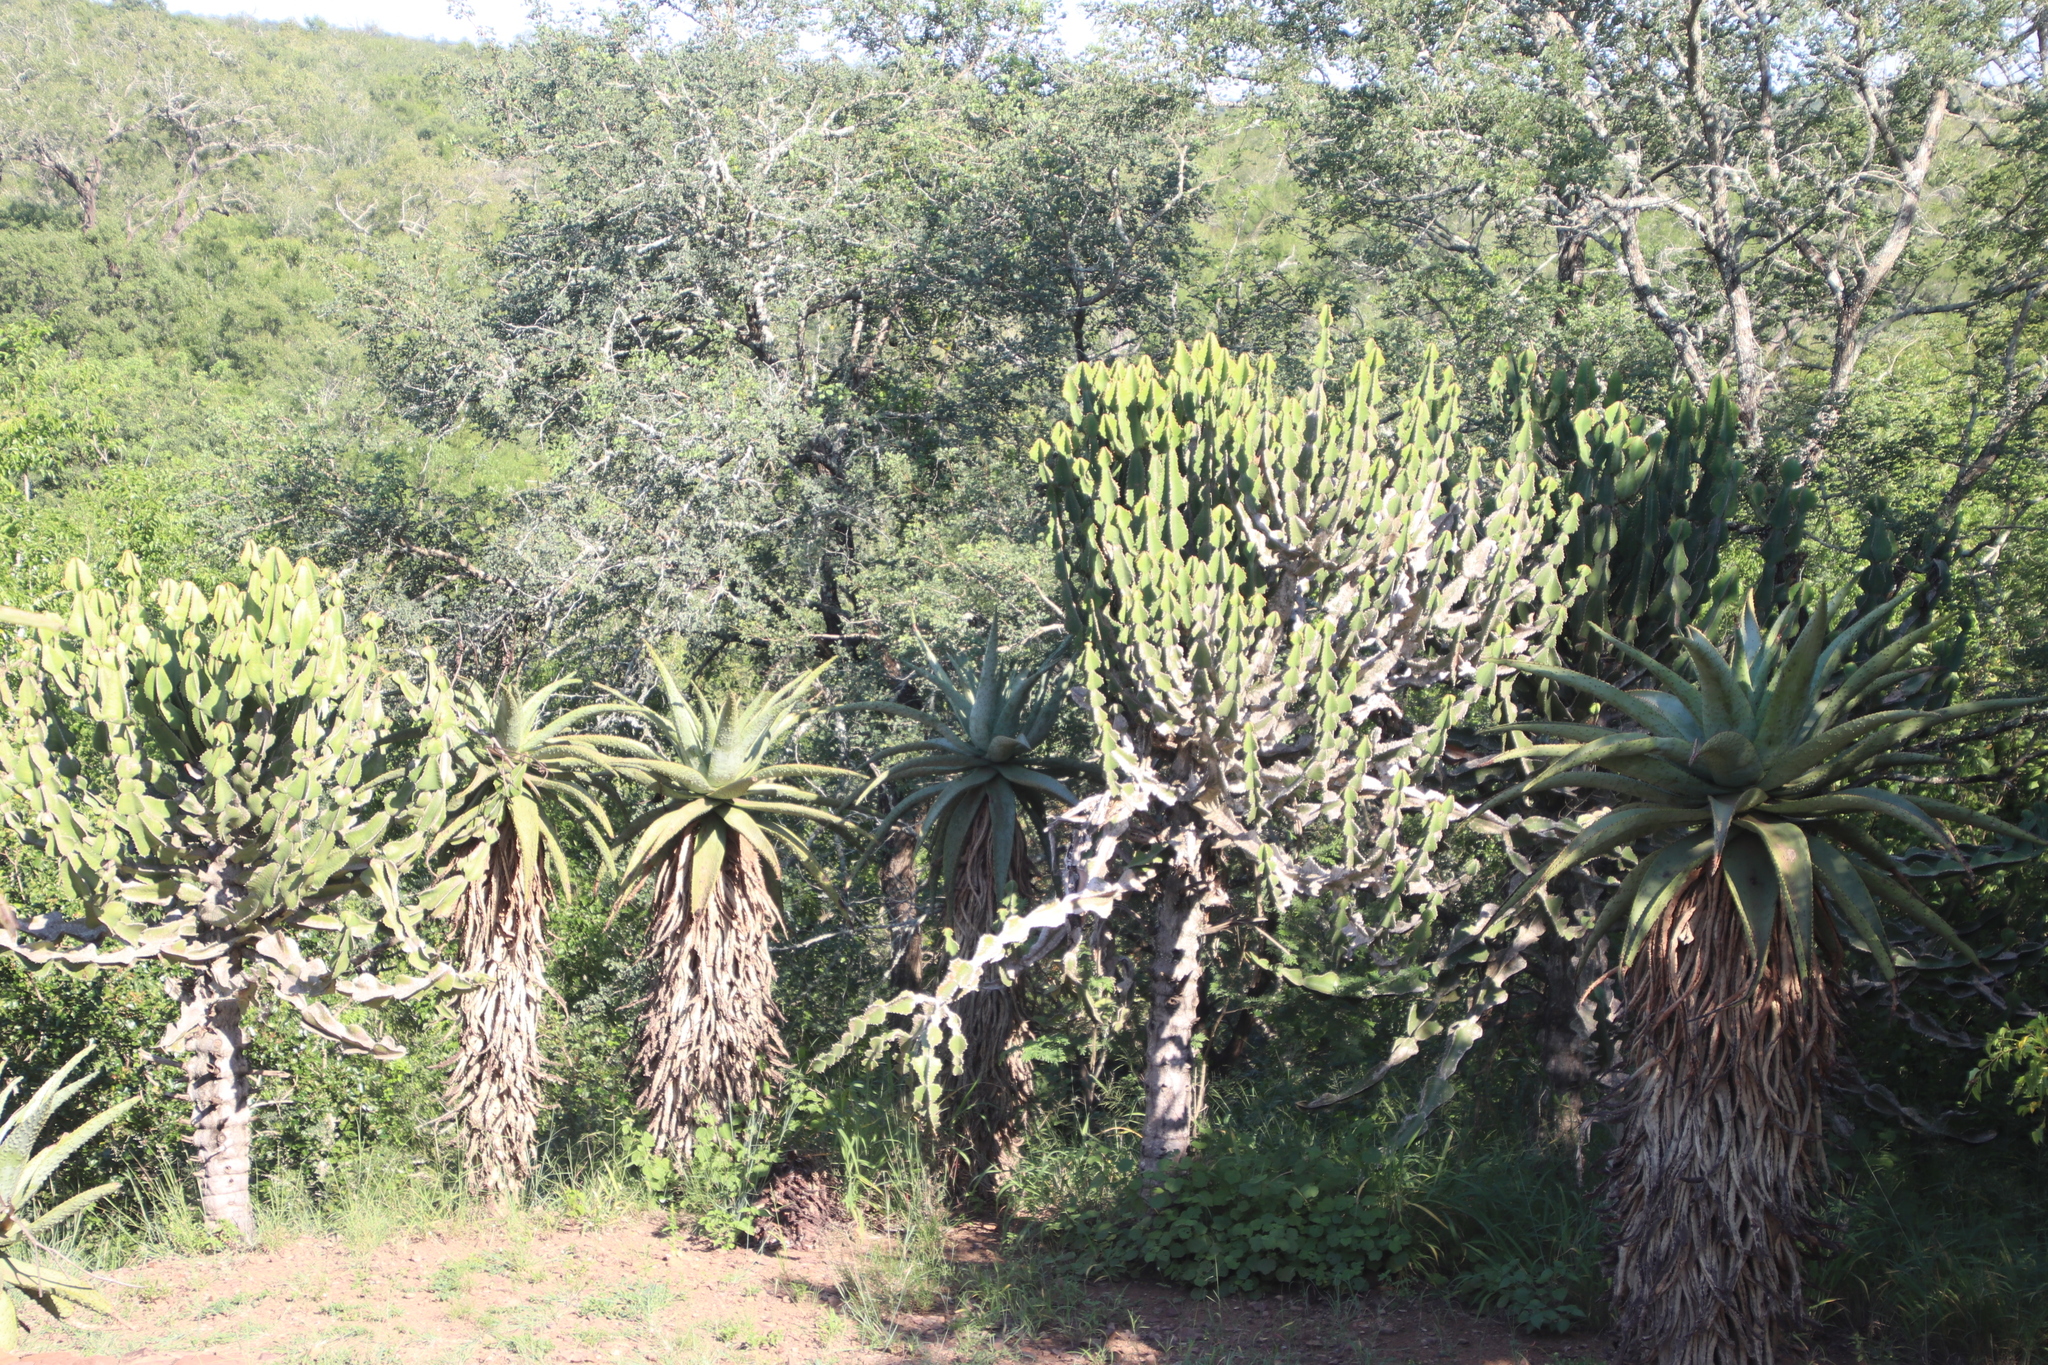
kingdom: Plantae
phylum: Tracheophyta
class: Magnoliopsida
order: Malpighiales
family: Euphorbiaceae
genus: Euphorbia
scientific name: Euphorbia cooperi
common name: Candelabra tree
